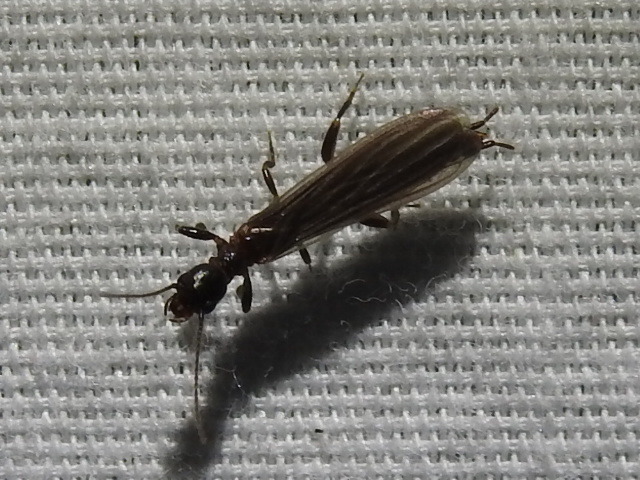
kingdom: Animalia
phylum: Arthropoda
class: Insecta
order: Embioptera
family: Oligotomidae
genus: Oligotoma
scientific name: Oligotoma nigra
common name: Black webspinner
